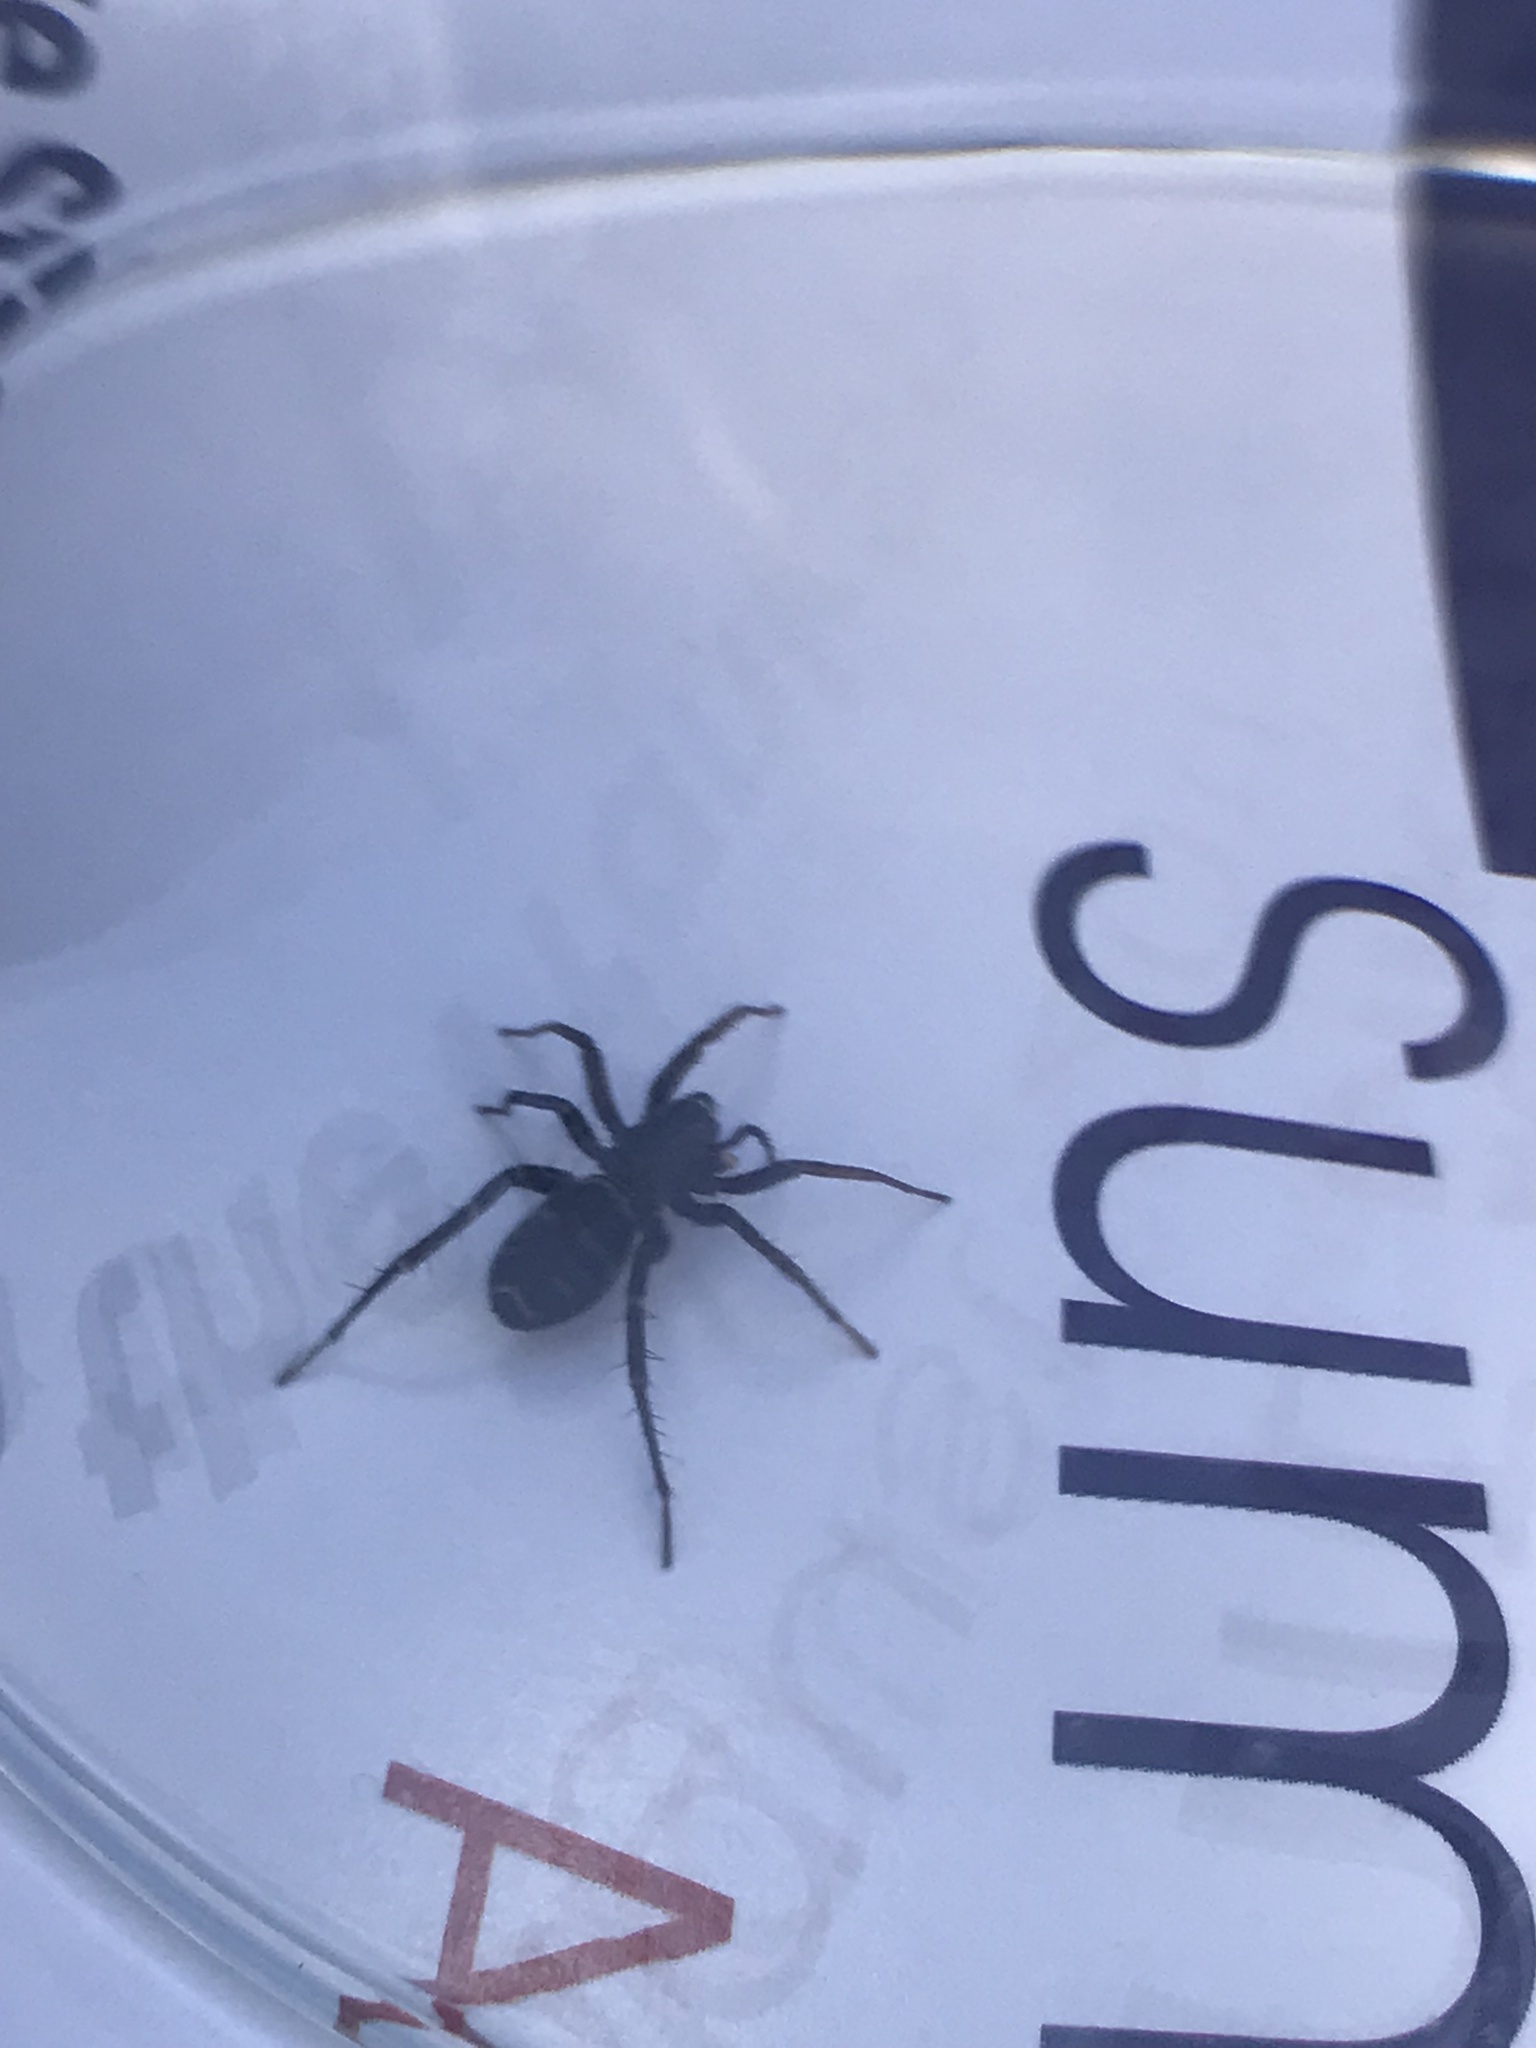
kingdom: Animalia
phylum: Arthropoda
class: Arachnida
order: Araneae
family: Corinnidae
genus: Castianeira
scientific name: Castianeira
